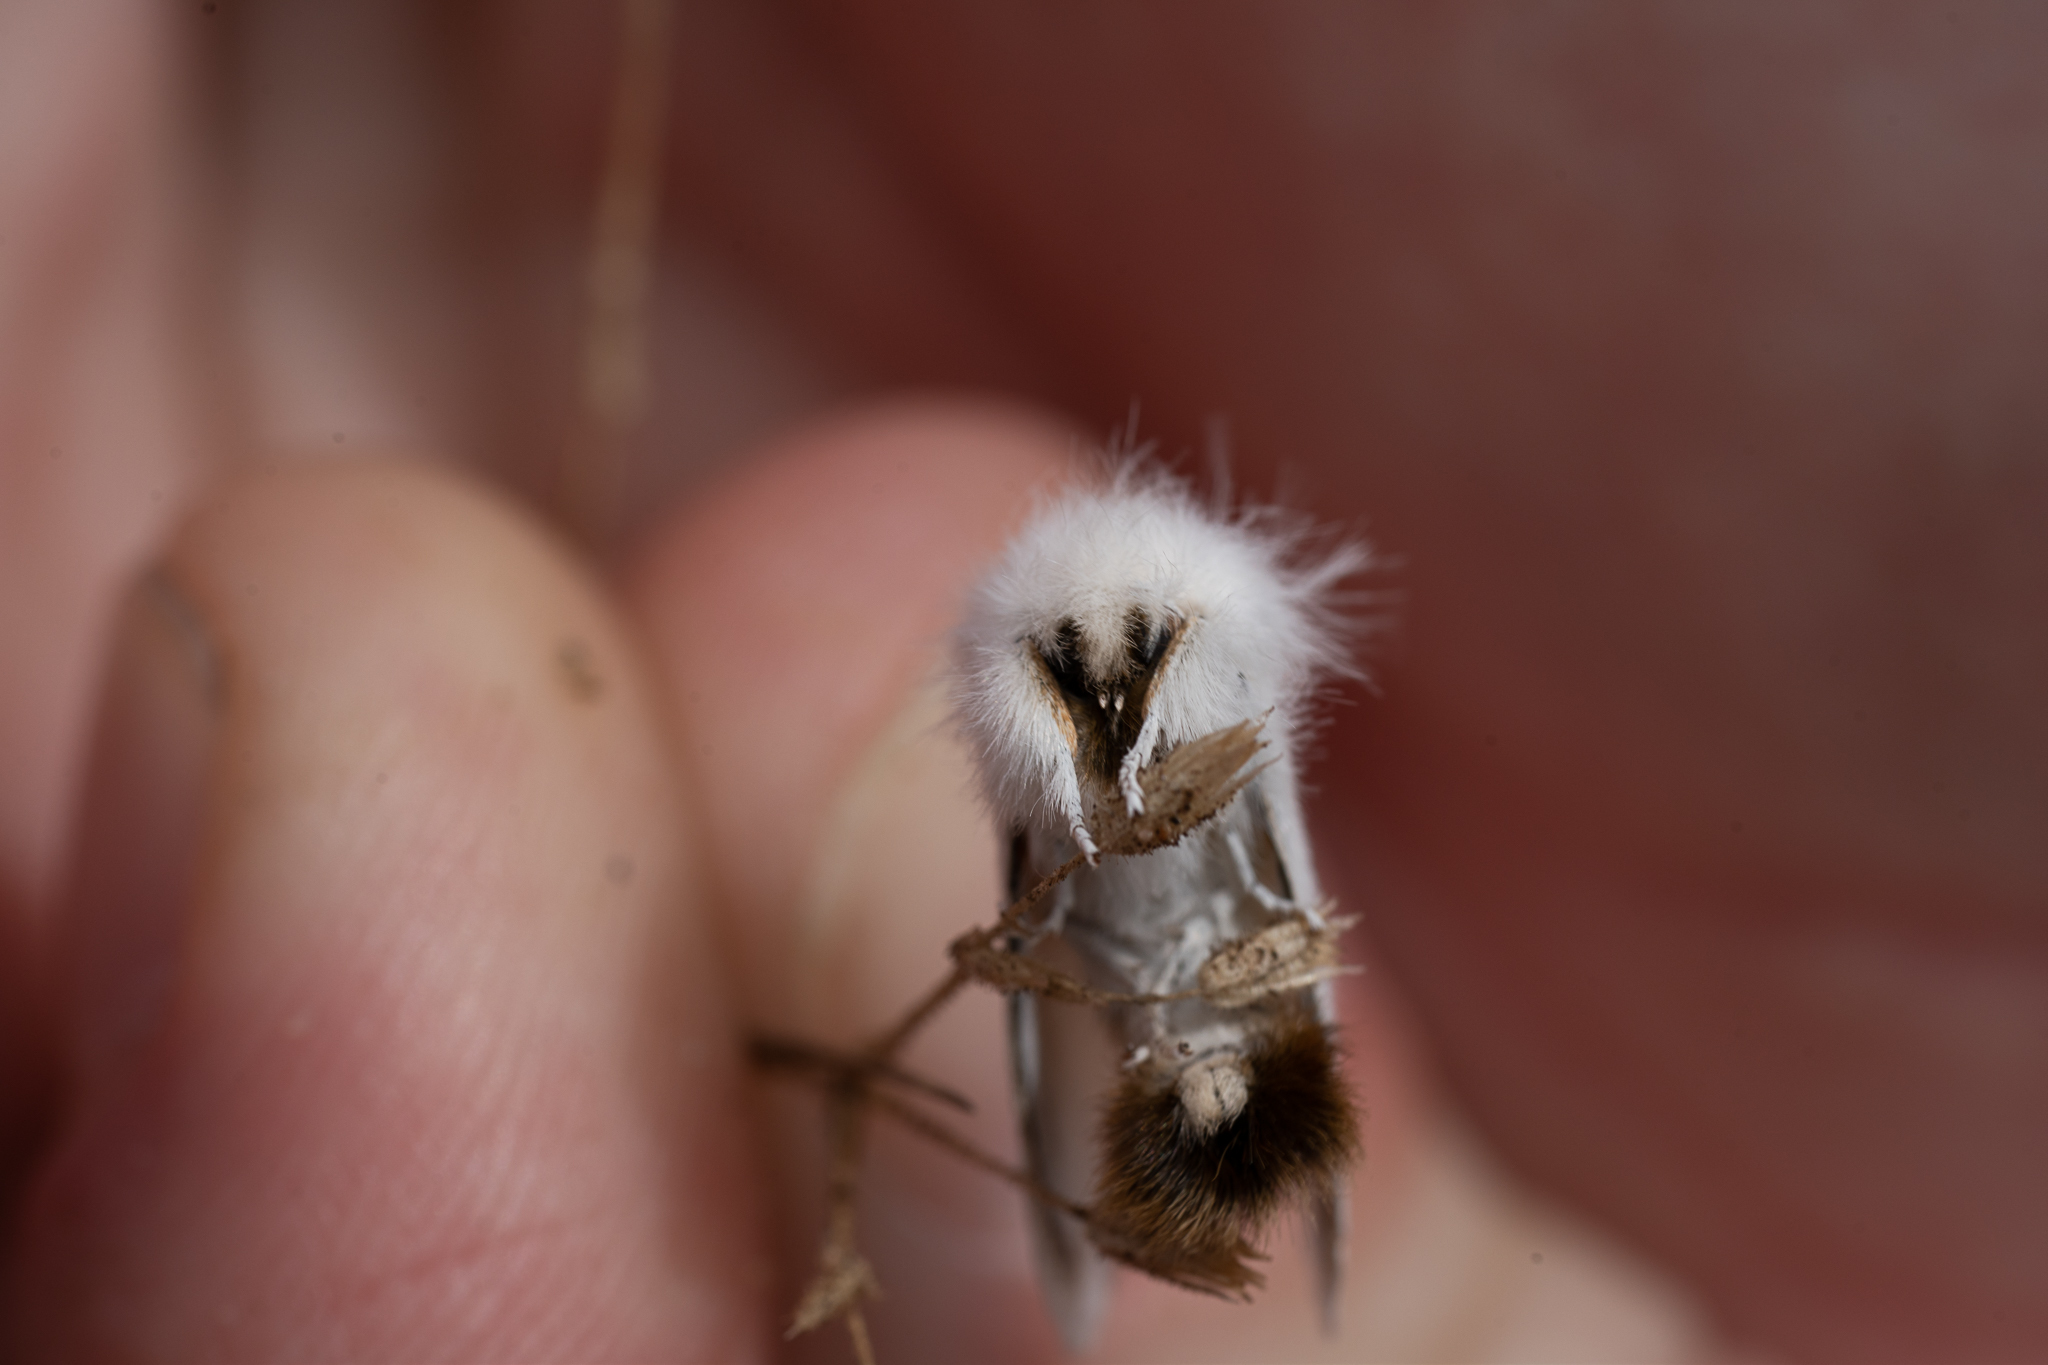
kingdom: Animalia
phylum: Arthropoda
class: Insecta
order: Lepidoptera
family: Erebidae
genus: Euproctis
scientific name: Euproctis chrysorrhoea
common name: Brown-tail
